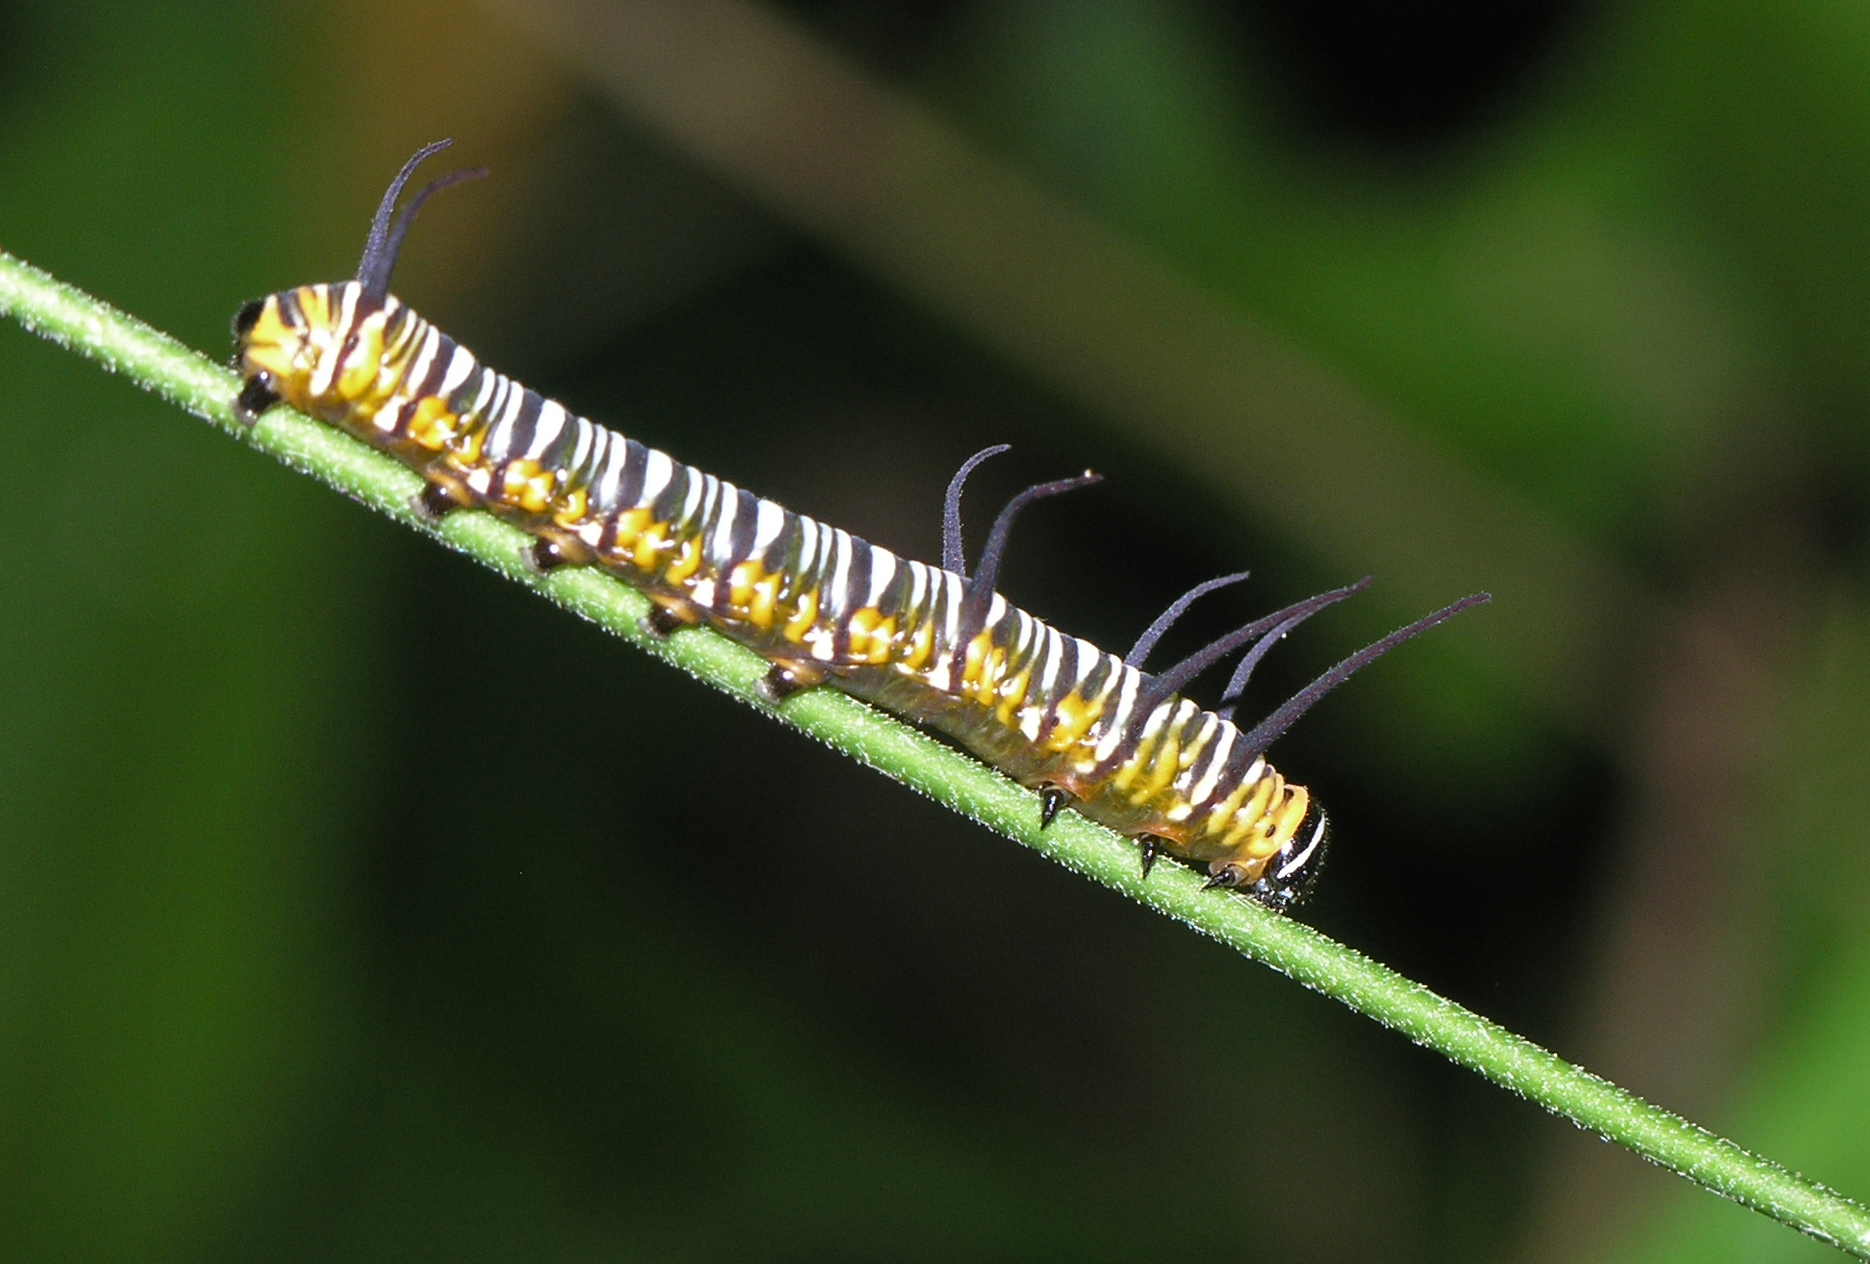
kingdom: Animalia
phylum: Arthropoda
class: Insecta
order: Lepidoptera
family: Nymphalidae
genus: Euploea
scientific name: Euploea mulciber
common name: Striped blue crow butterfly
